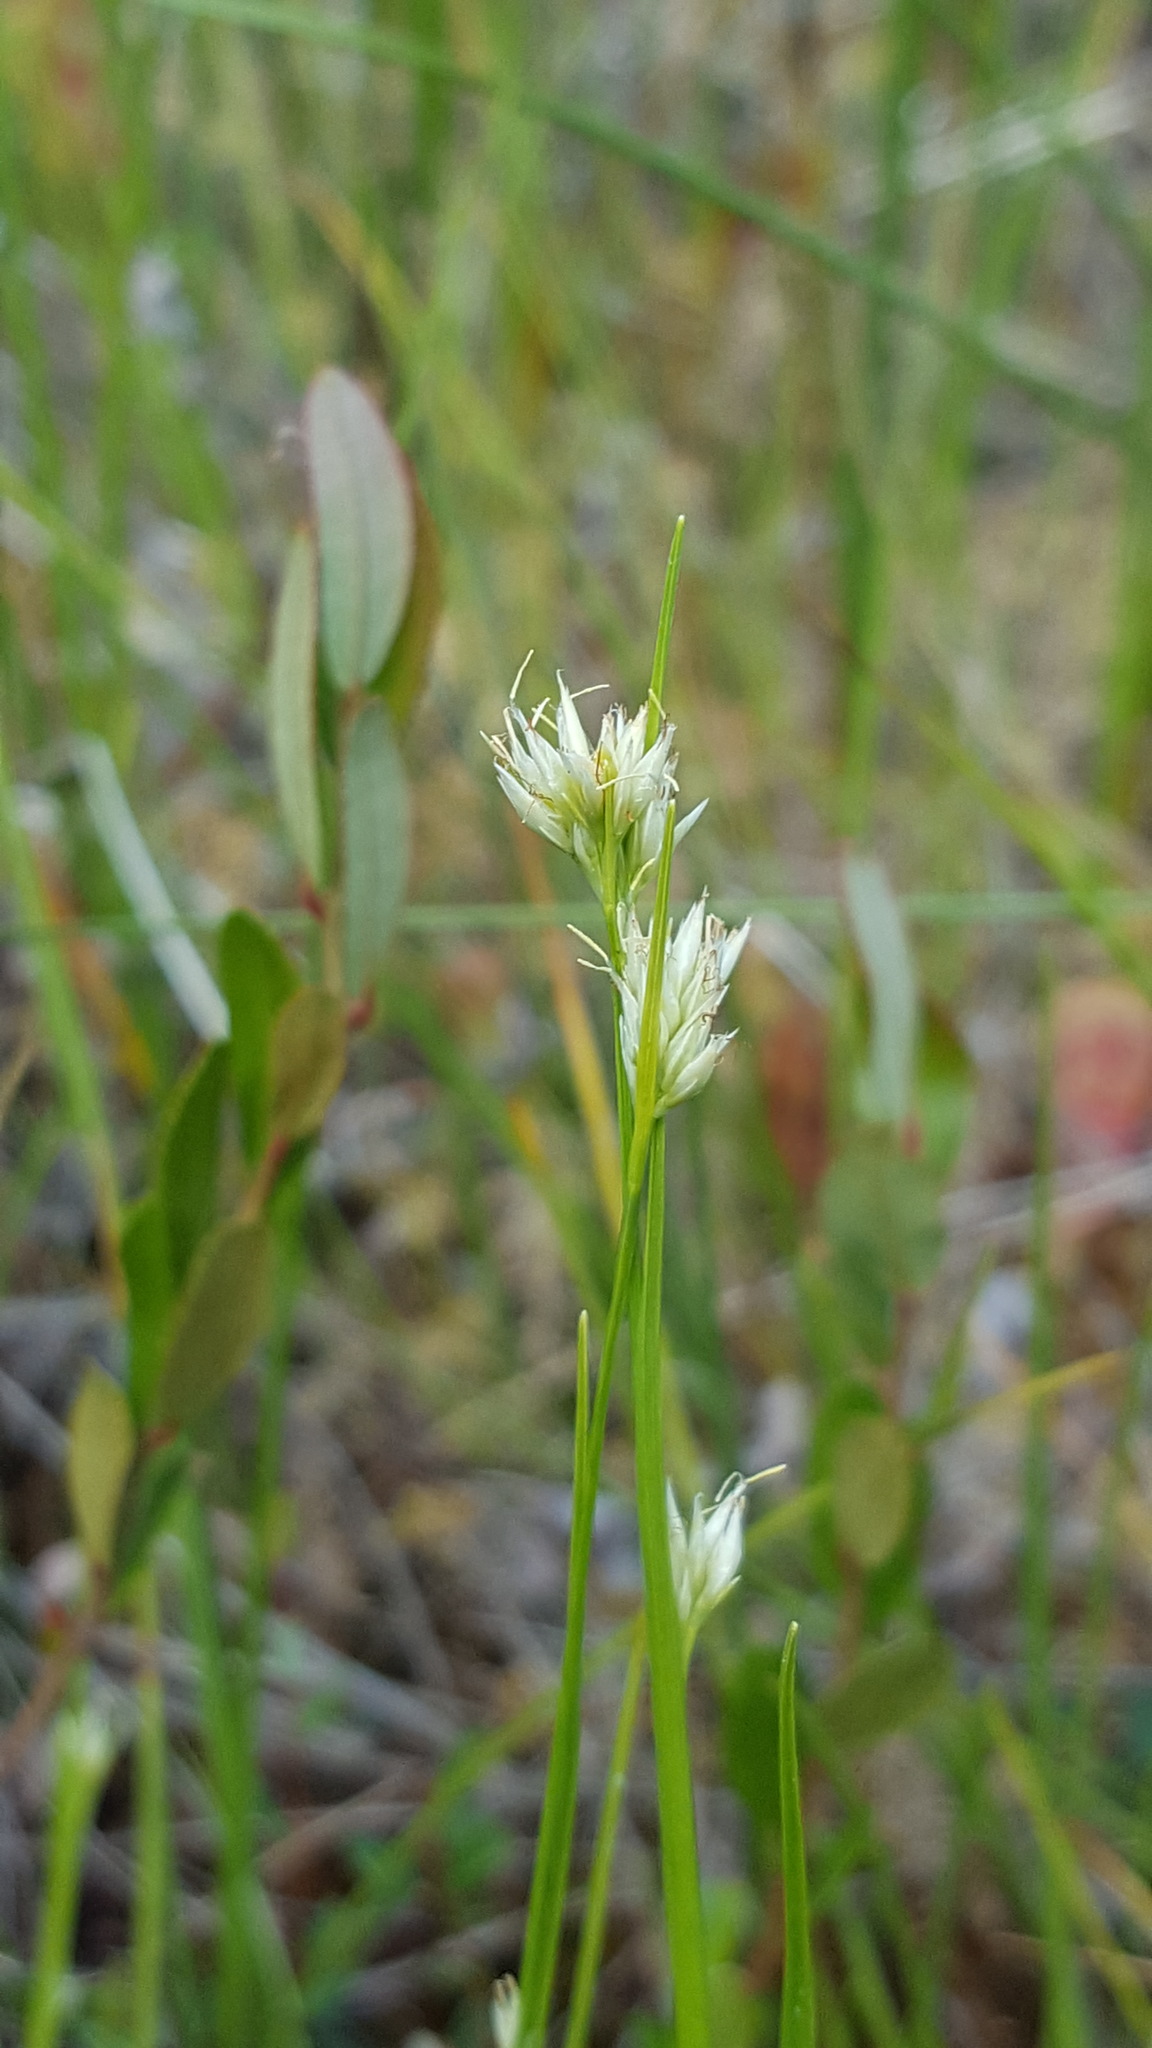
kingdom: Plantae
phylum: Tracheophyta
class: Liliopsida
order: Poales
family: Cyperaceae
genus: Rhynchospora
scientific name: Rhynchospora alba
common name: White beak-sedge
